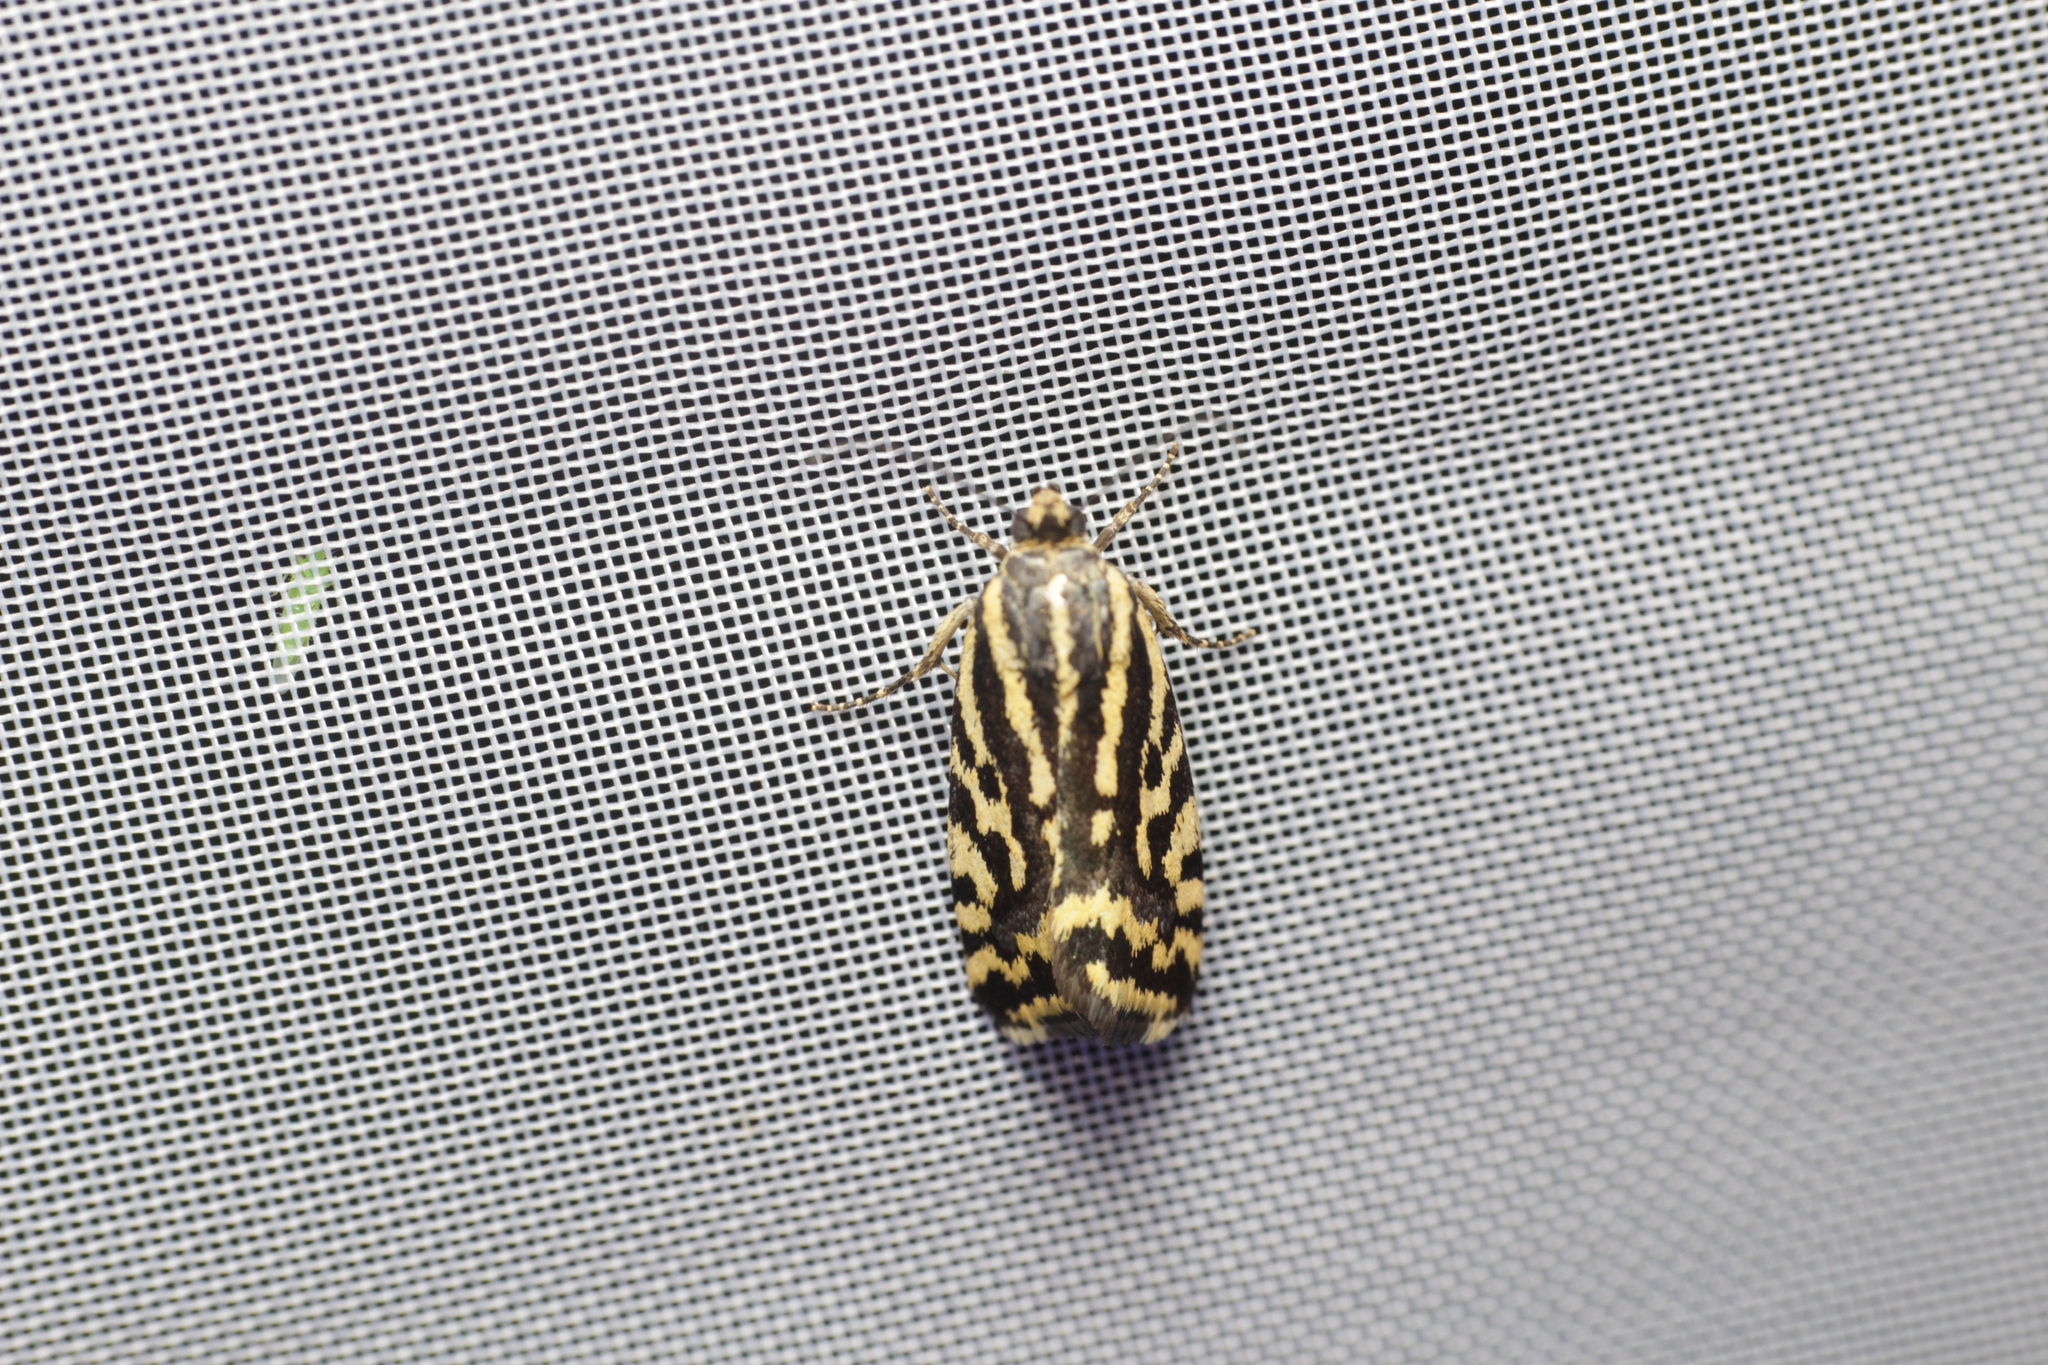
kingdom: Animalia
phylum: Arthropoda
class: Insecta
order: Lepidoptera
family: Noctuidae
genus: Acontia
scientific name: Acontia trabealis
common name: Spotted sulphur
